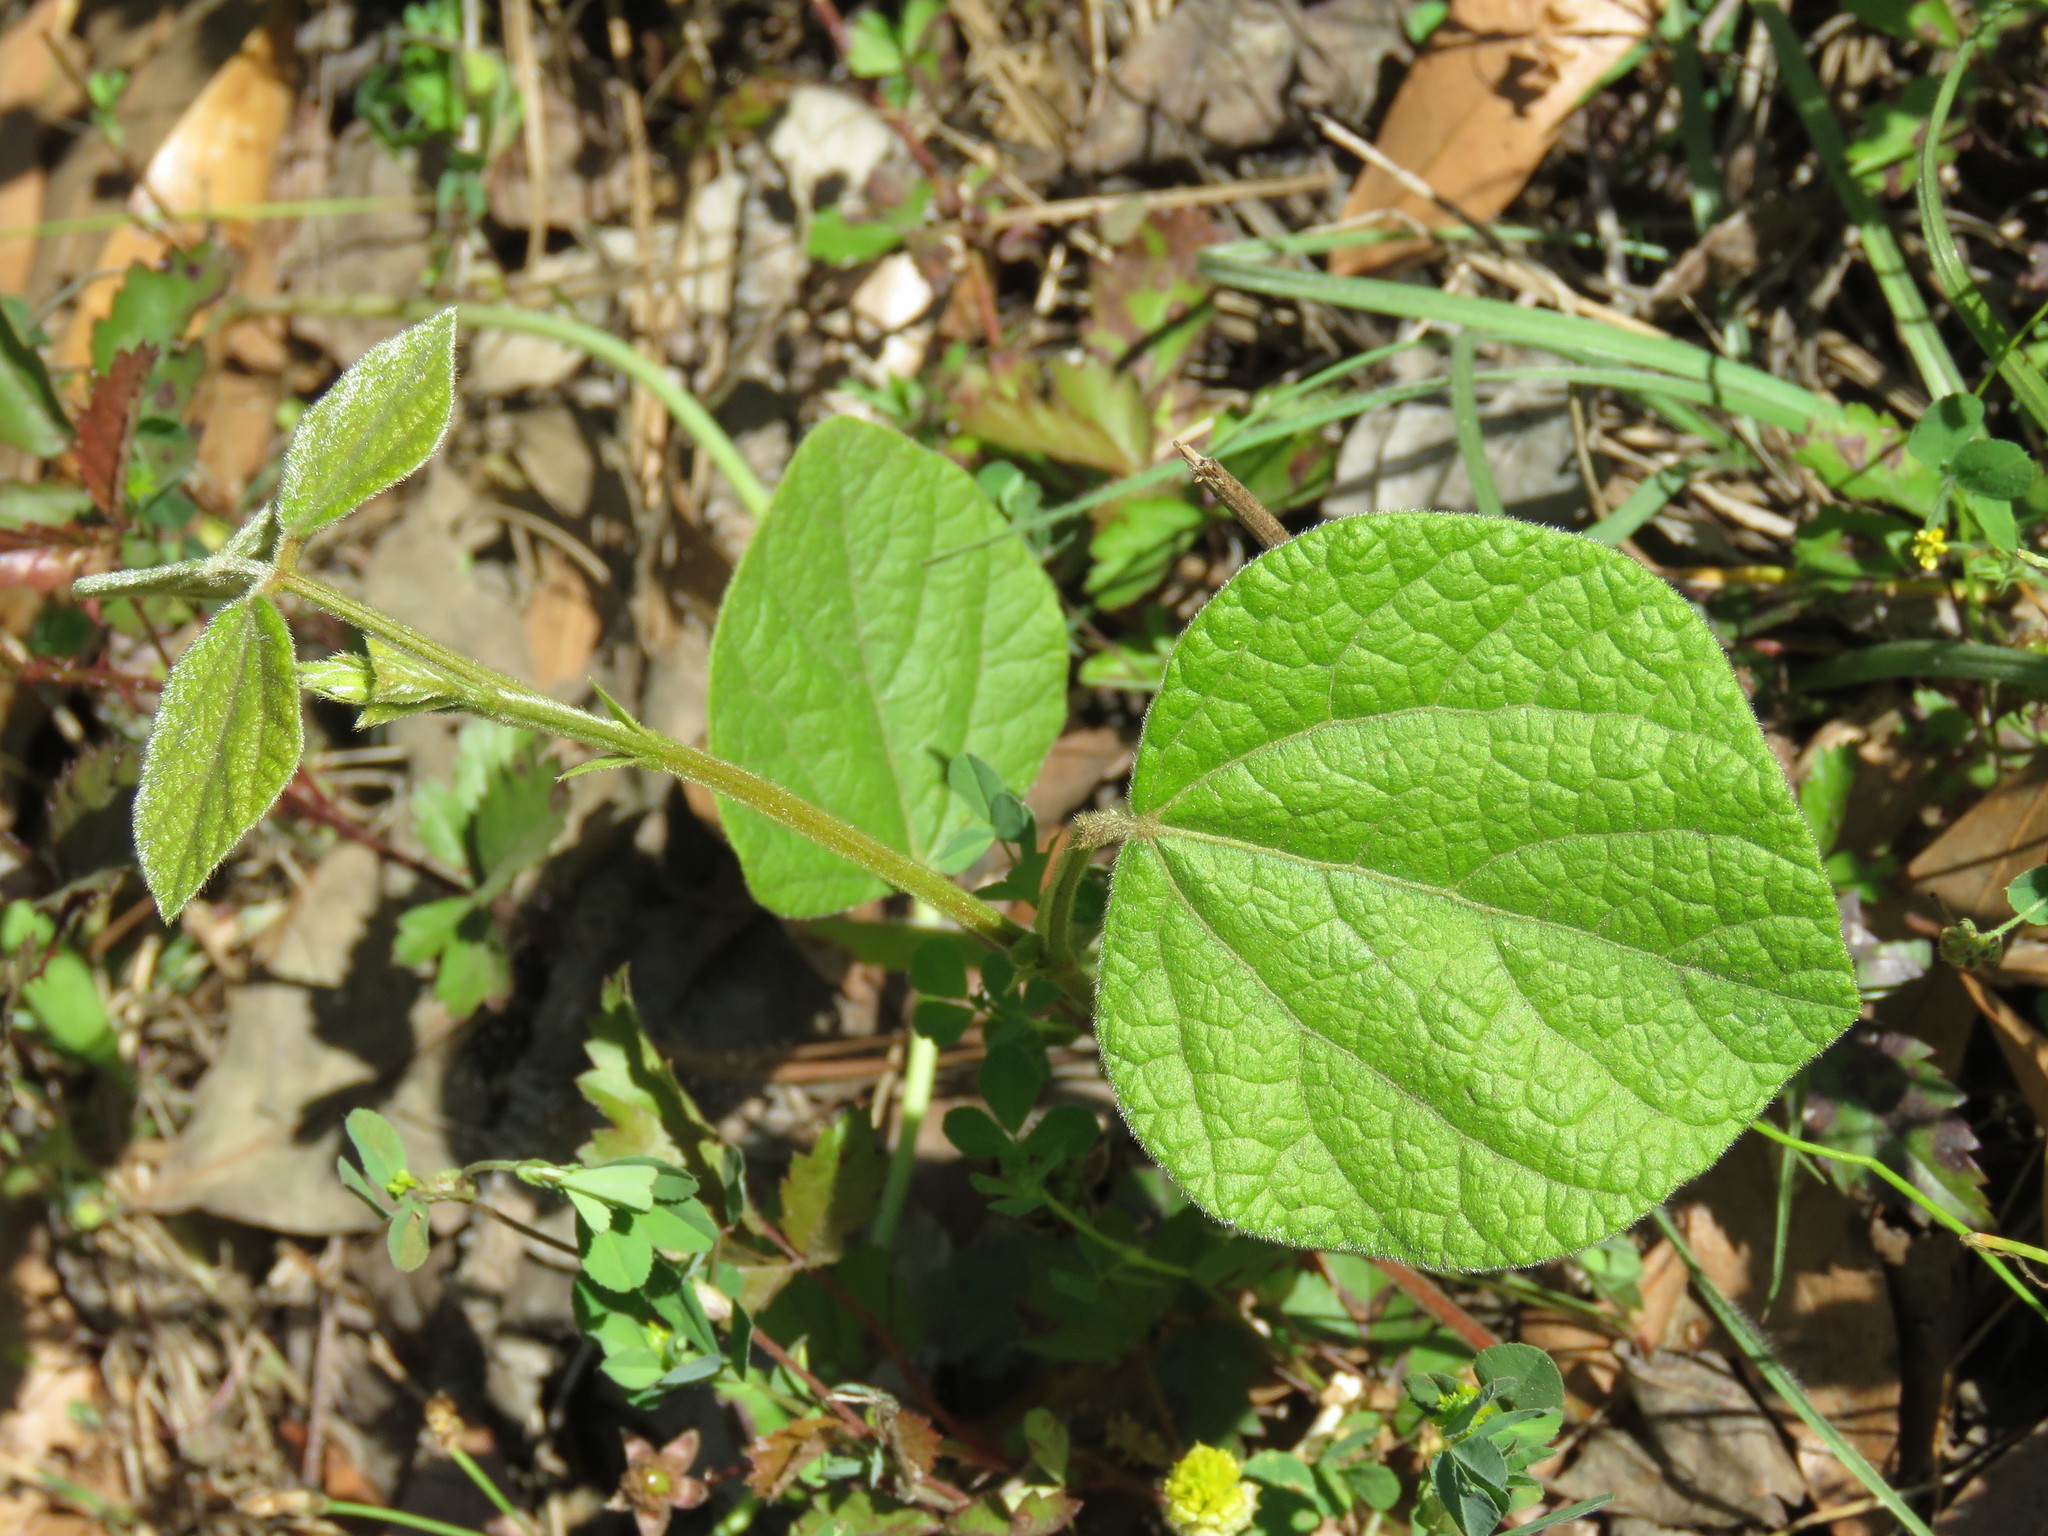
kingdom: Plantae
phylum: Tracheophyta
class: Magnoliopsida
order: Fabales
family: Fabaceae
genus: Rhynchosia
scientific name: Rhynchosia latifolia
